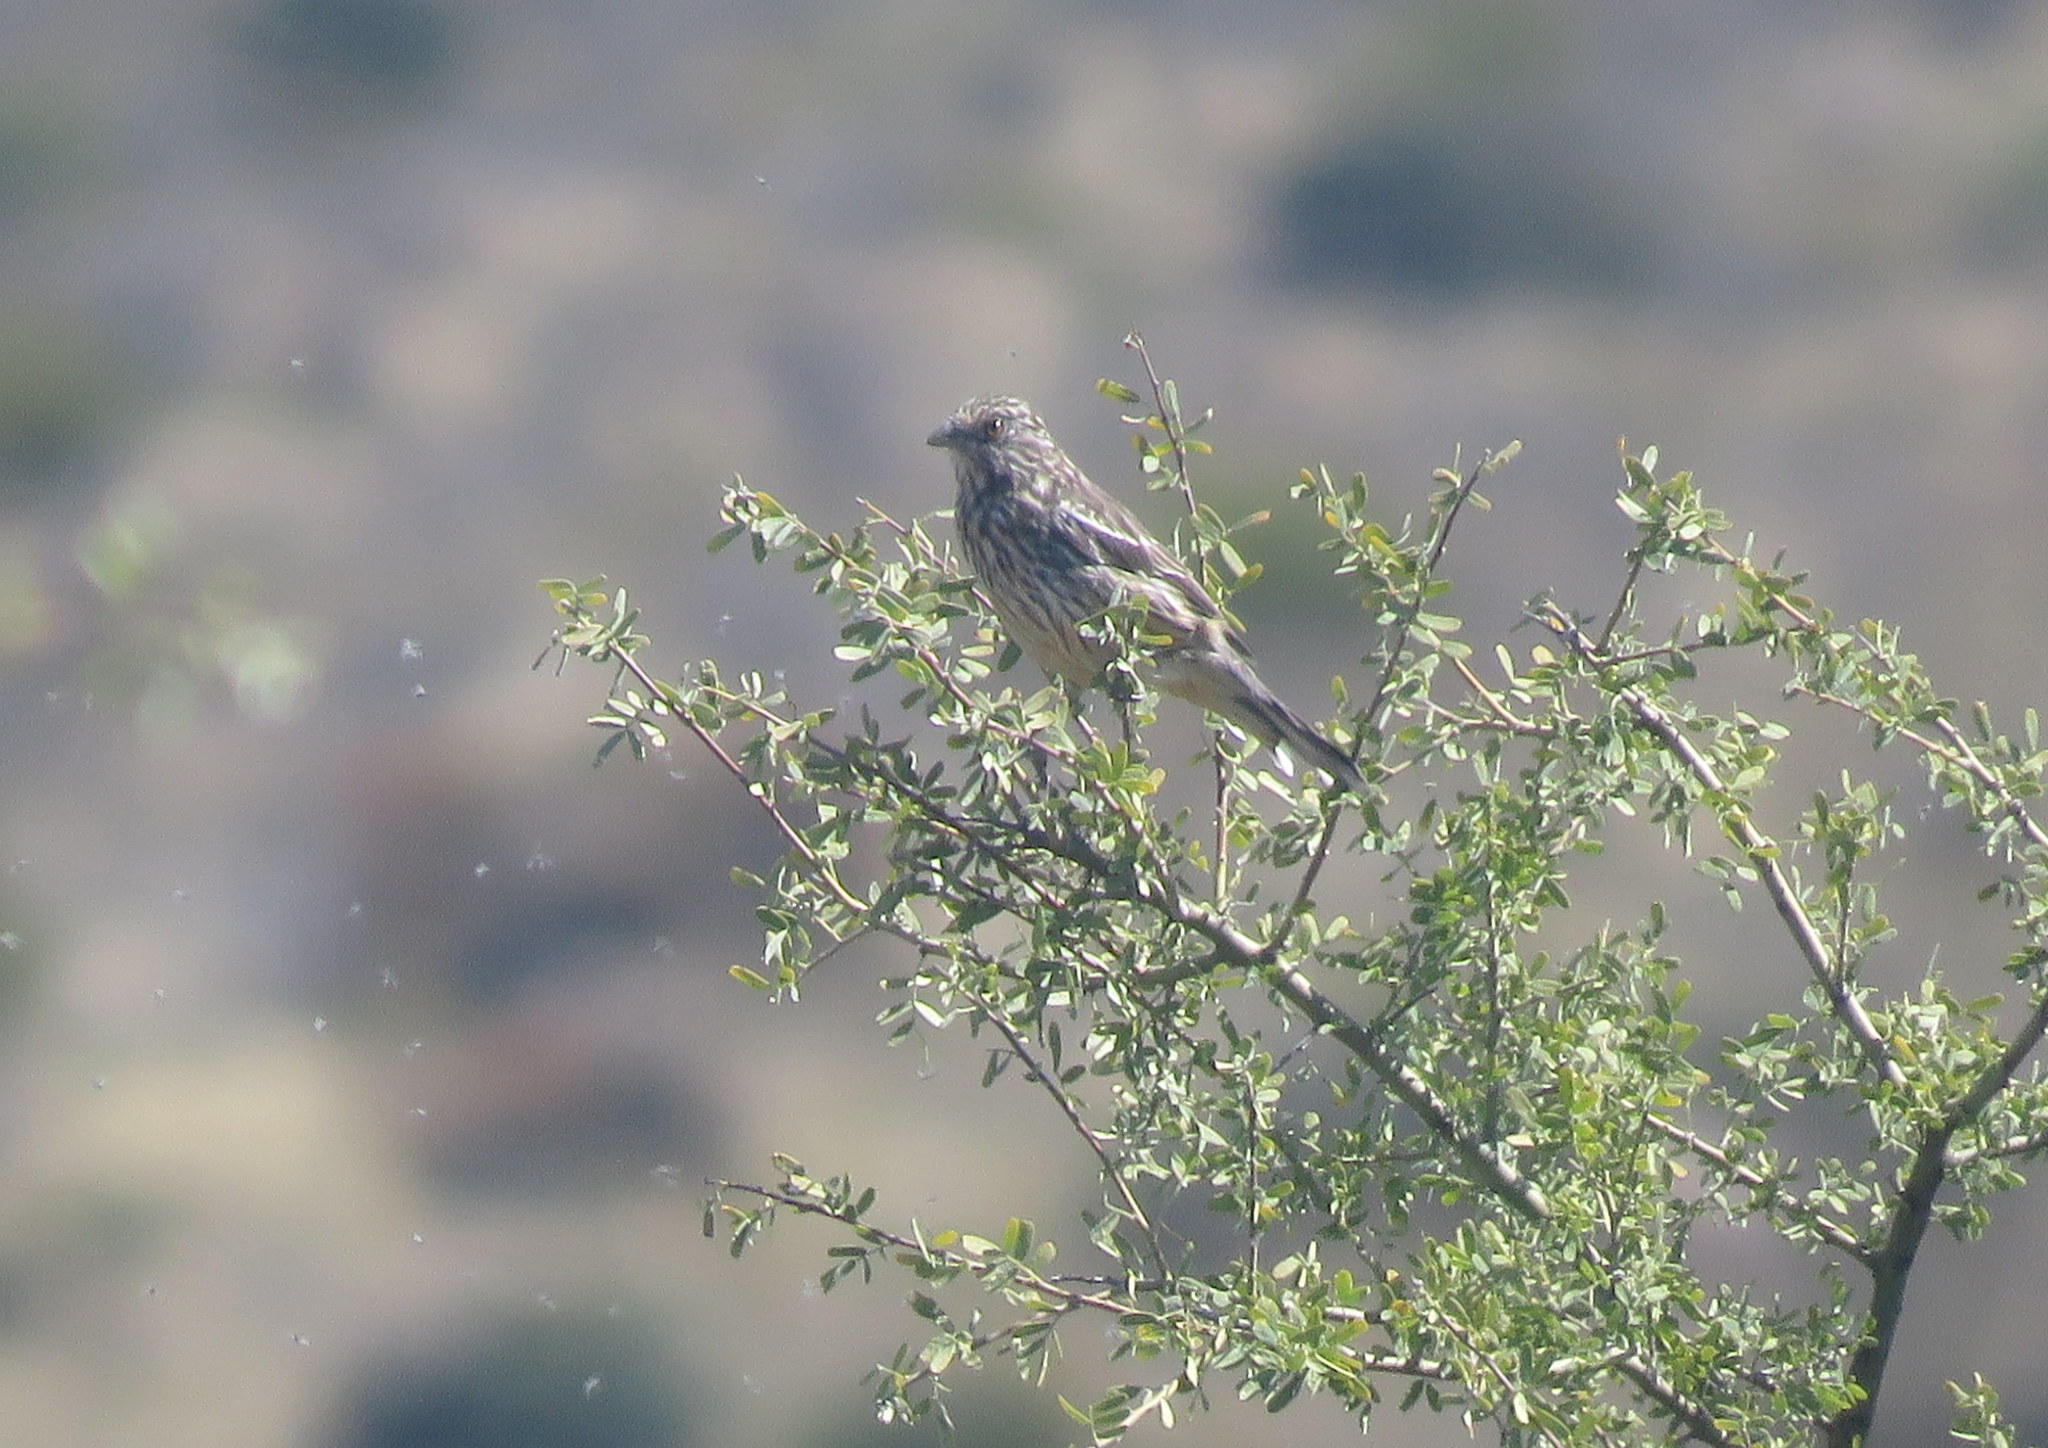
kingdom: Animalia
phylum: Chordata
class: Aves
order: Passeriformes
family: Cotingidae
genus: Phytotoma
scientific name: Phytotoma rutila
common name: White-tipped plantcutter
